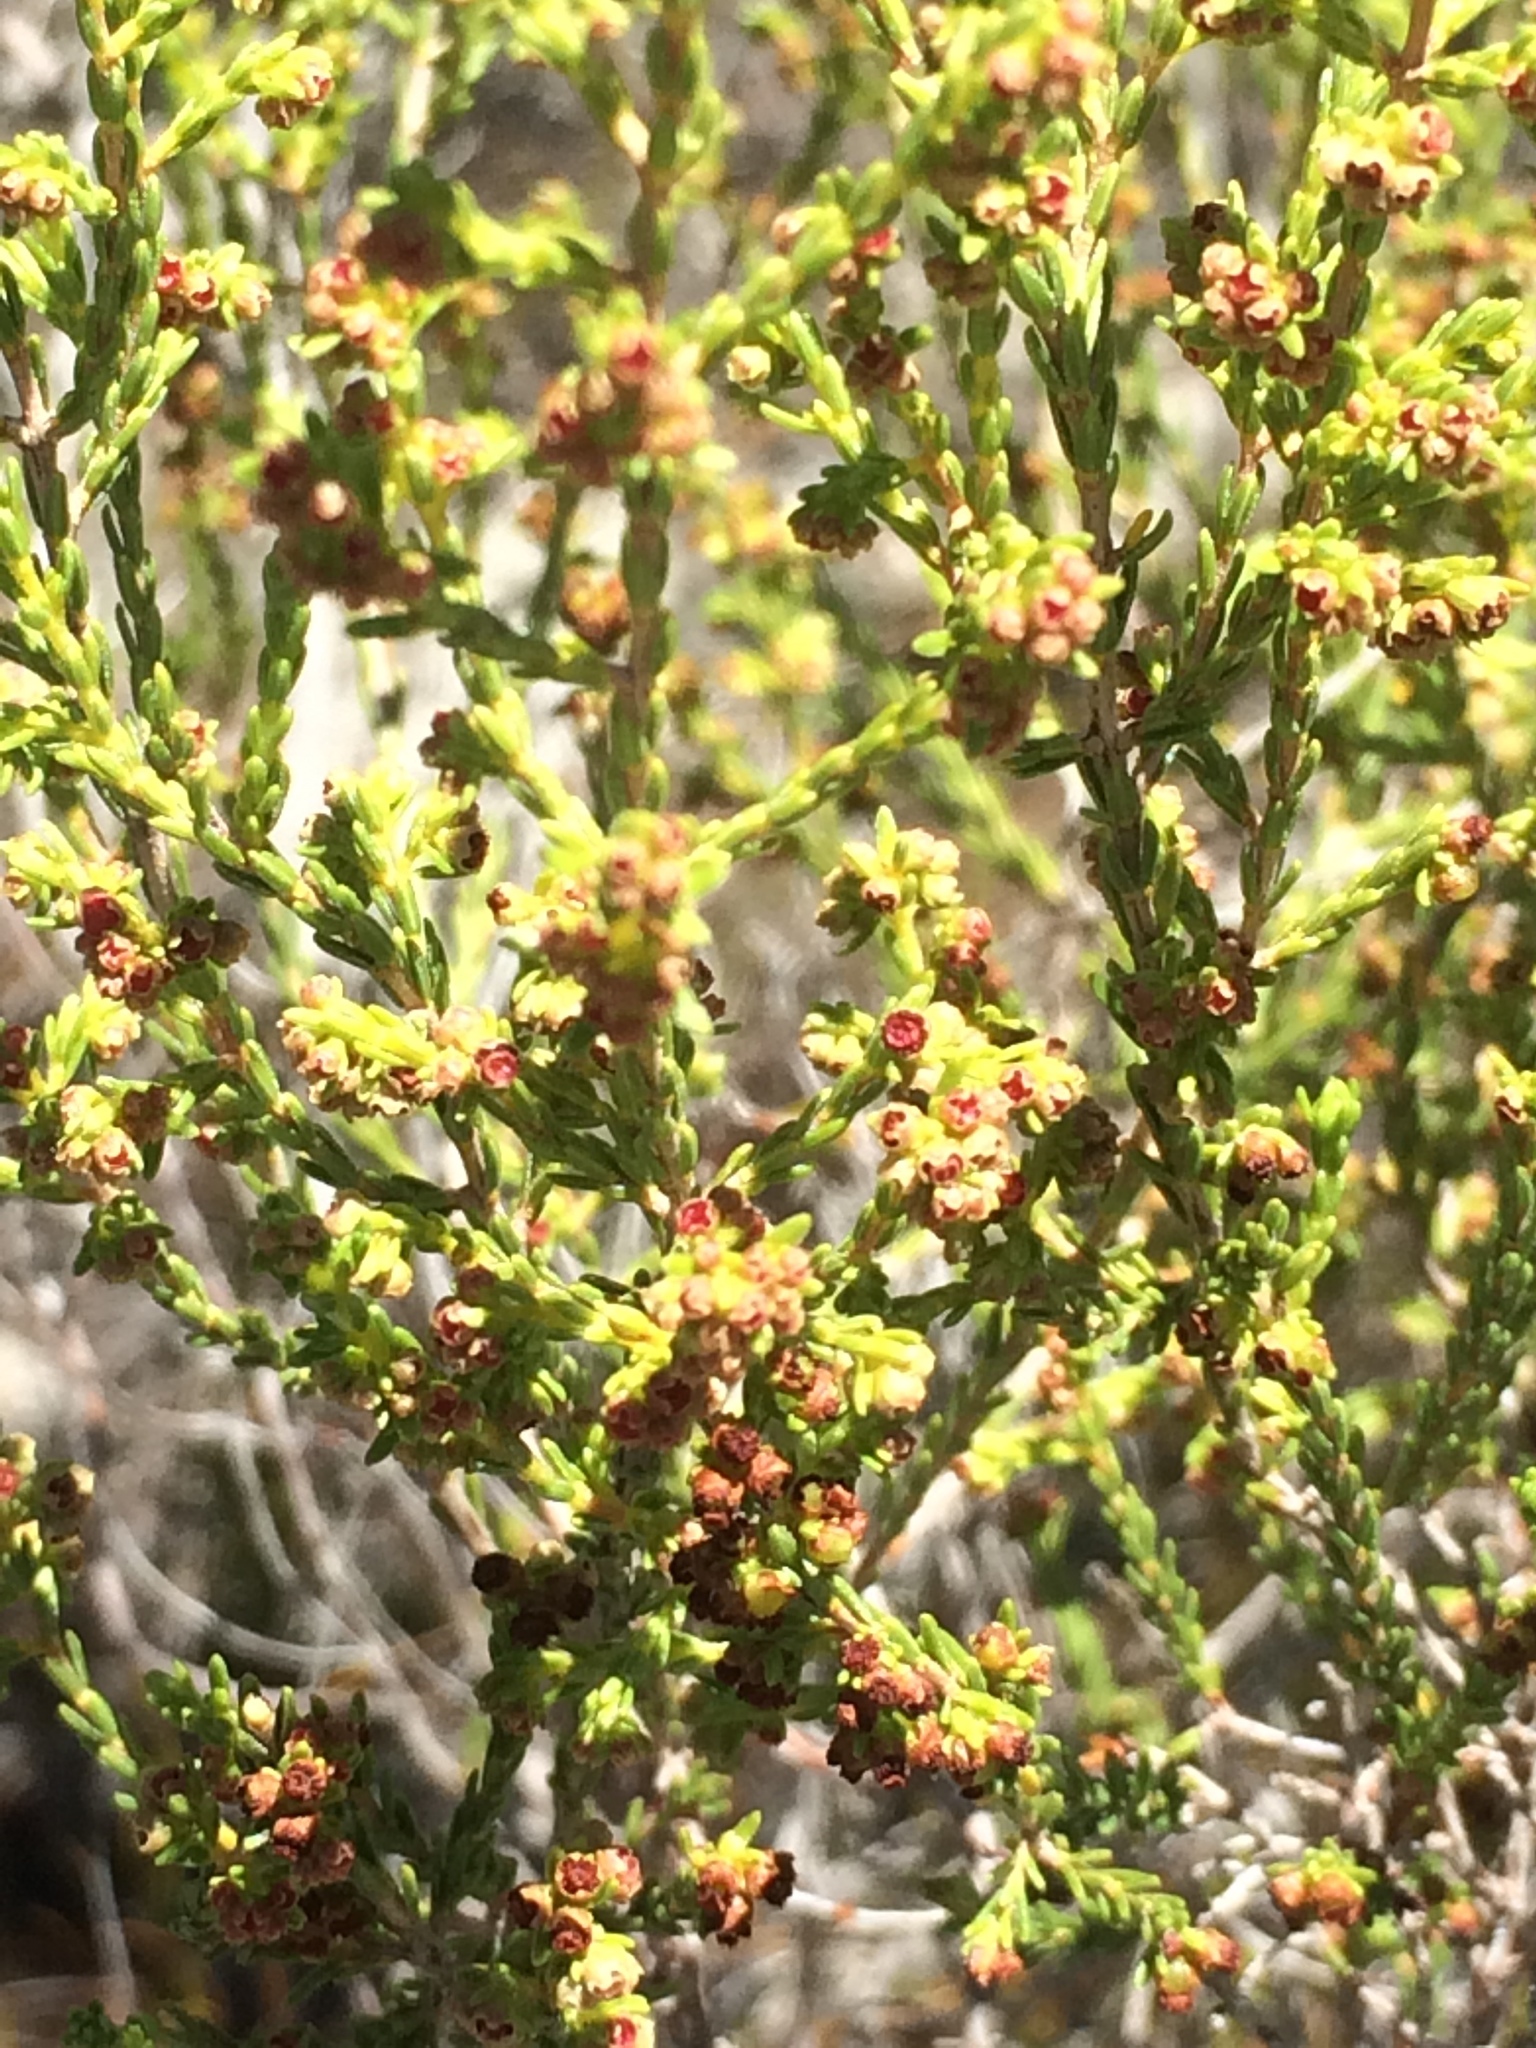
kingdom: Plantae
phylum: Tracheophyta
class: Magnoliopsida
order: Ericales
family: Ericaceae
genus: Erica
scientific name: Erica tristis
